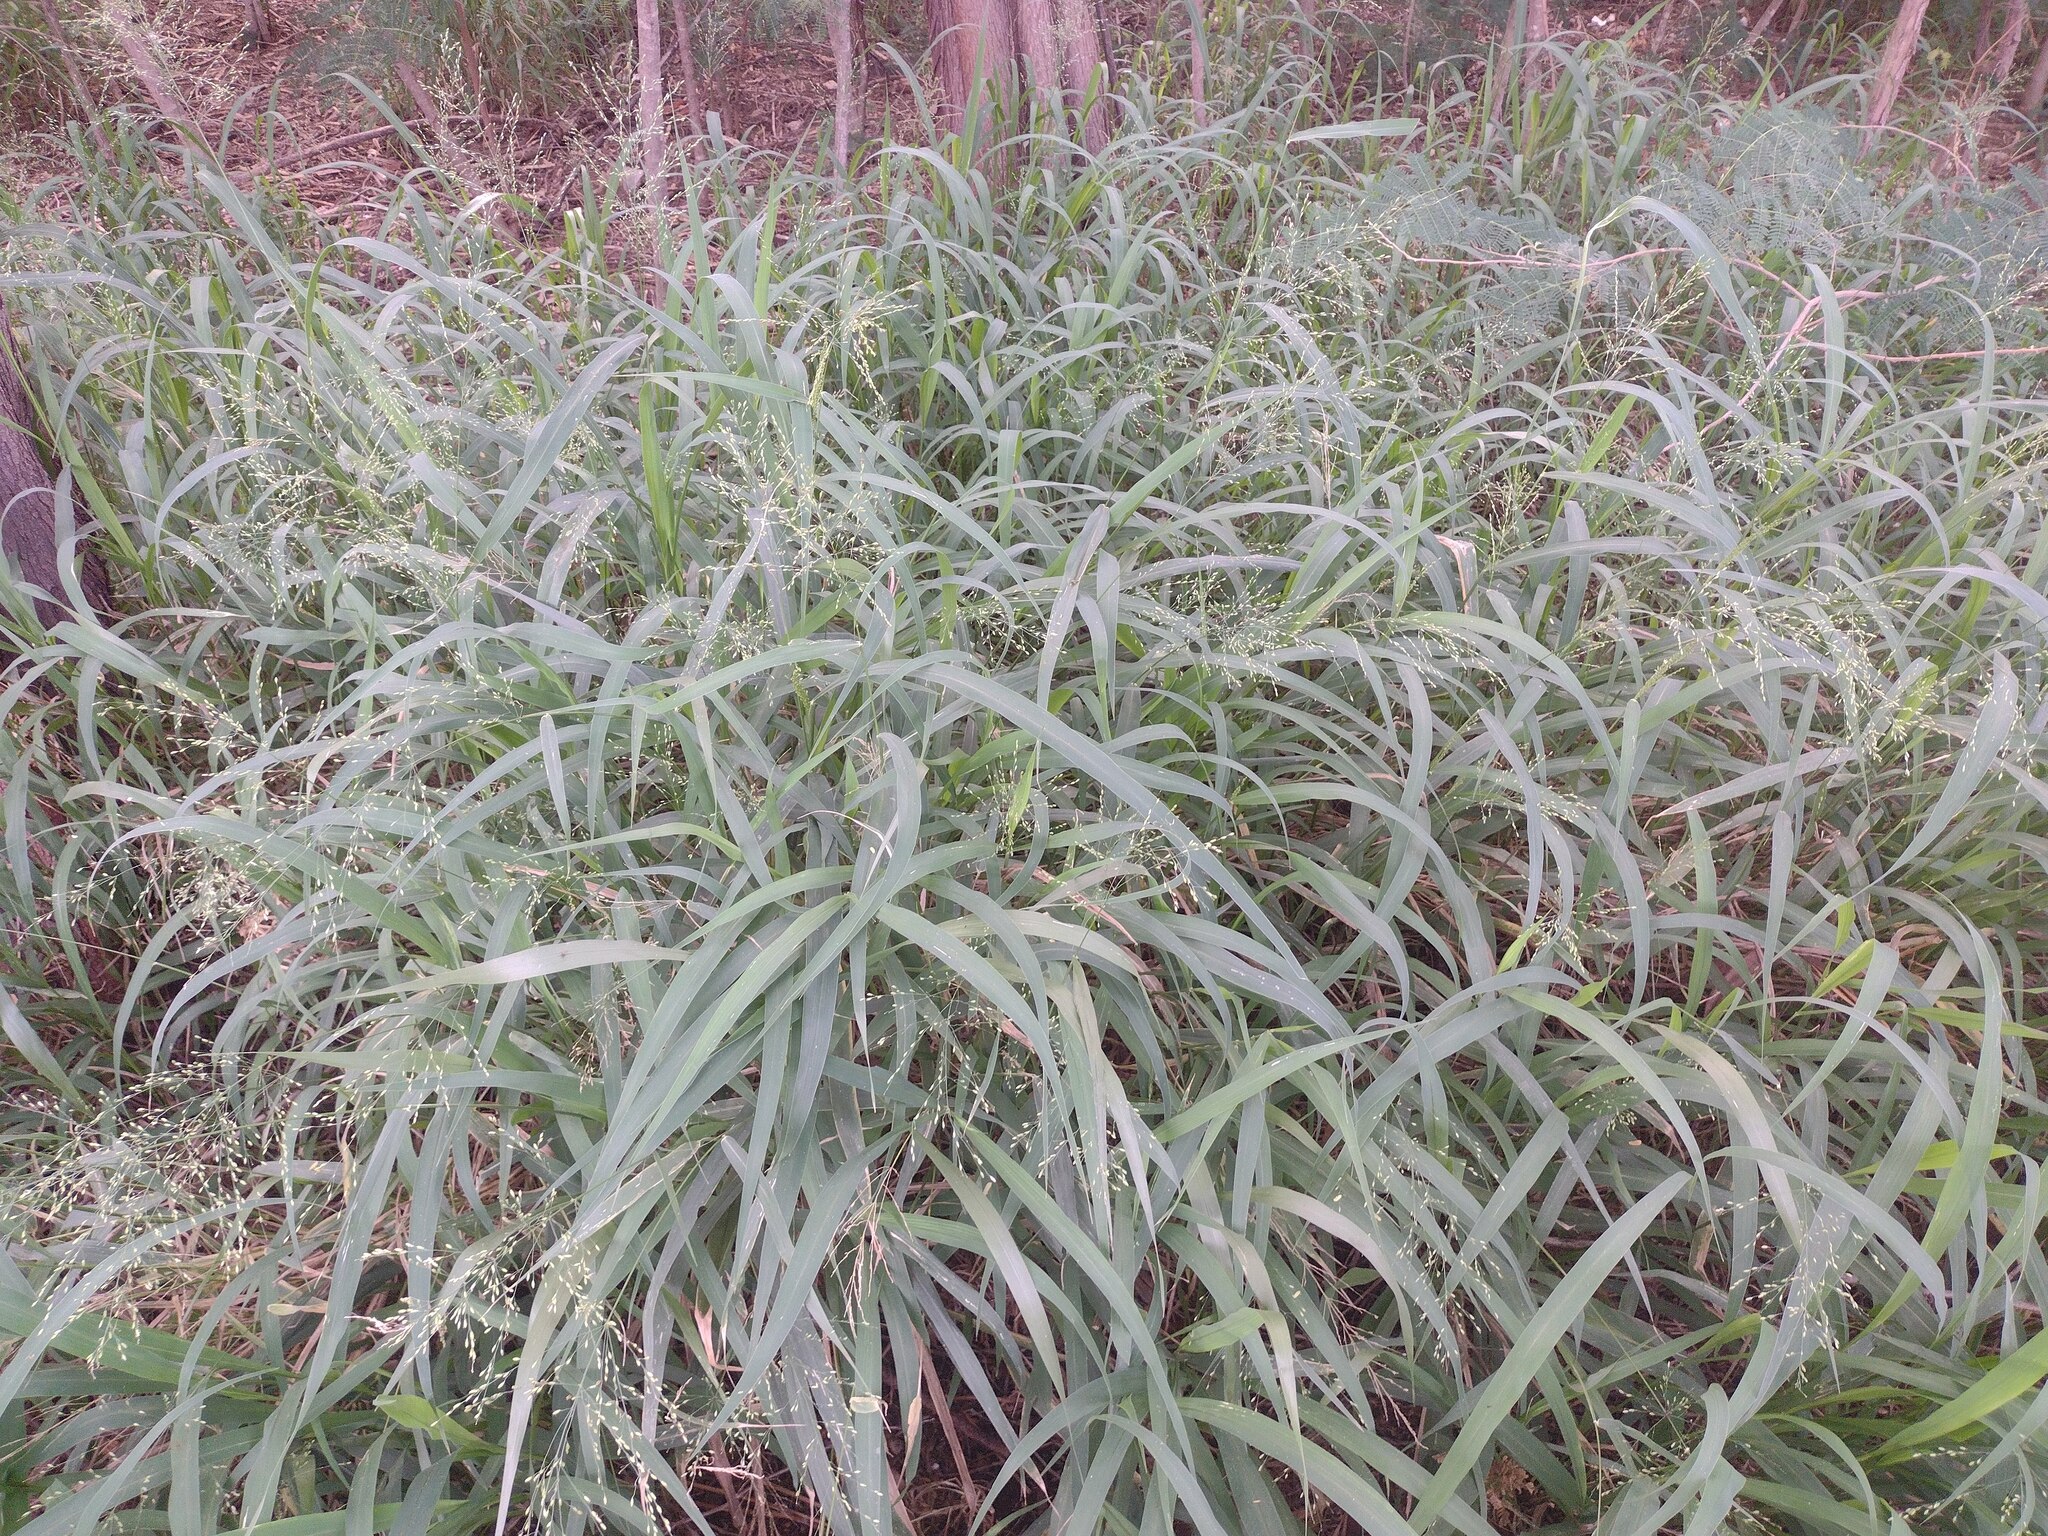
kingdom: Plantae
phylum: Tracheophyta
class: Liliopsida
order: Poales
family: Poaceae
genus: Megathyrsus
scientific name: Megathyrsus maximus
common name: Guineagrass
